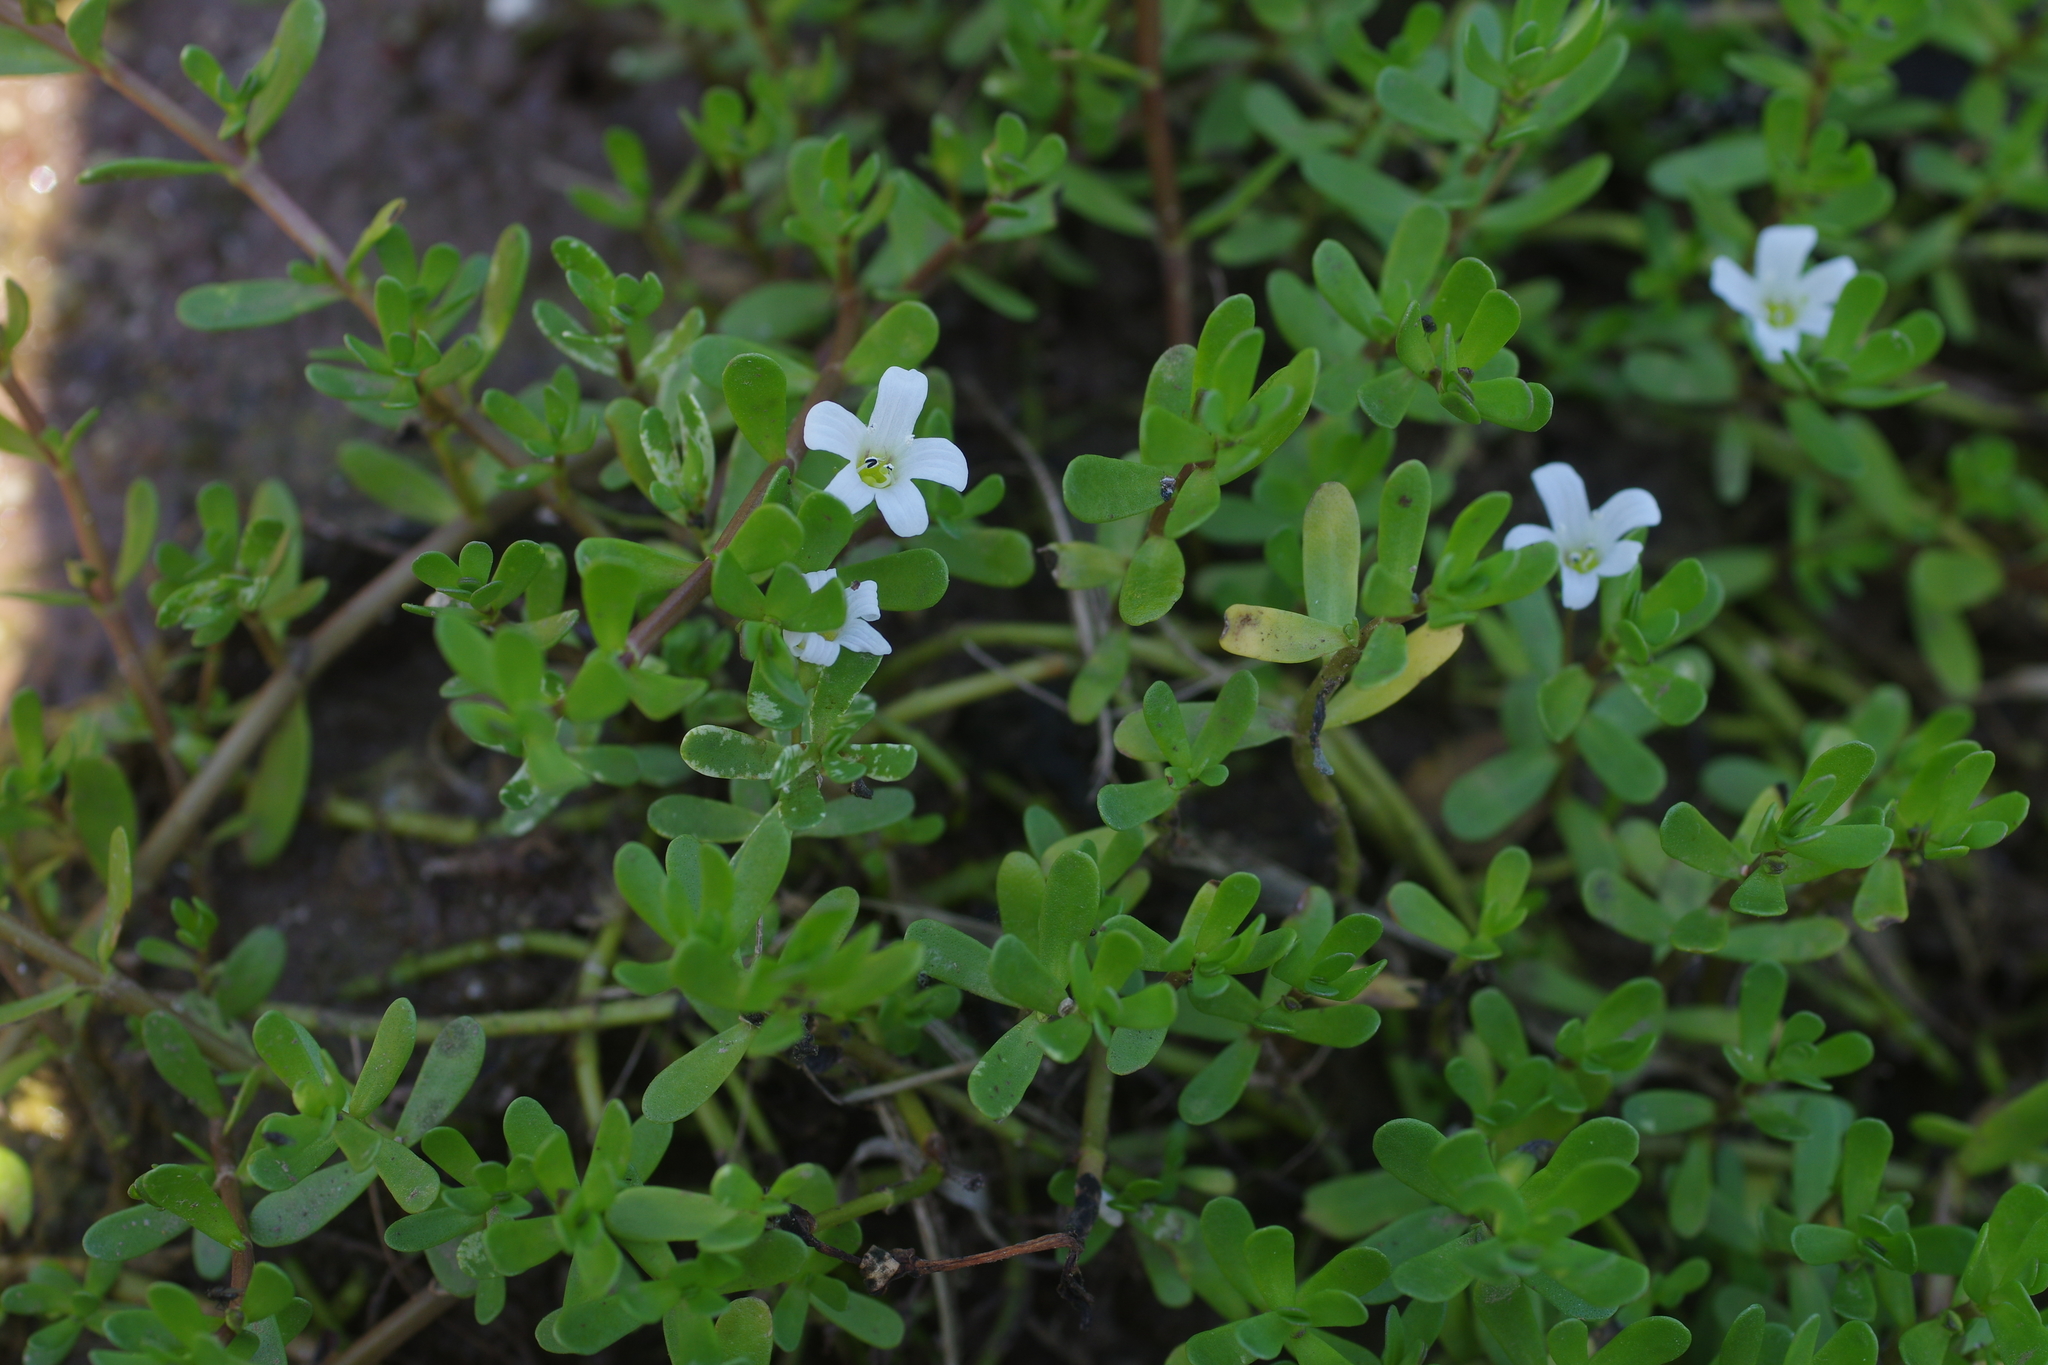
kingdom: Plantae
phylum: Tracheophyta
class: Magnoliopsida
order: Lamiales
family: Plantaginaceae
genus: Bacopa
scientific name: Bacopa monnieri
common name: Indian-pennywort
